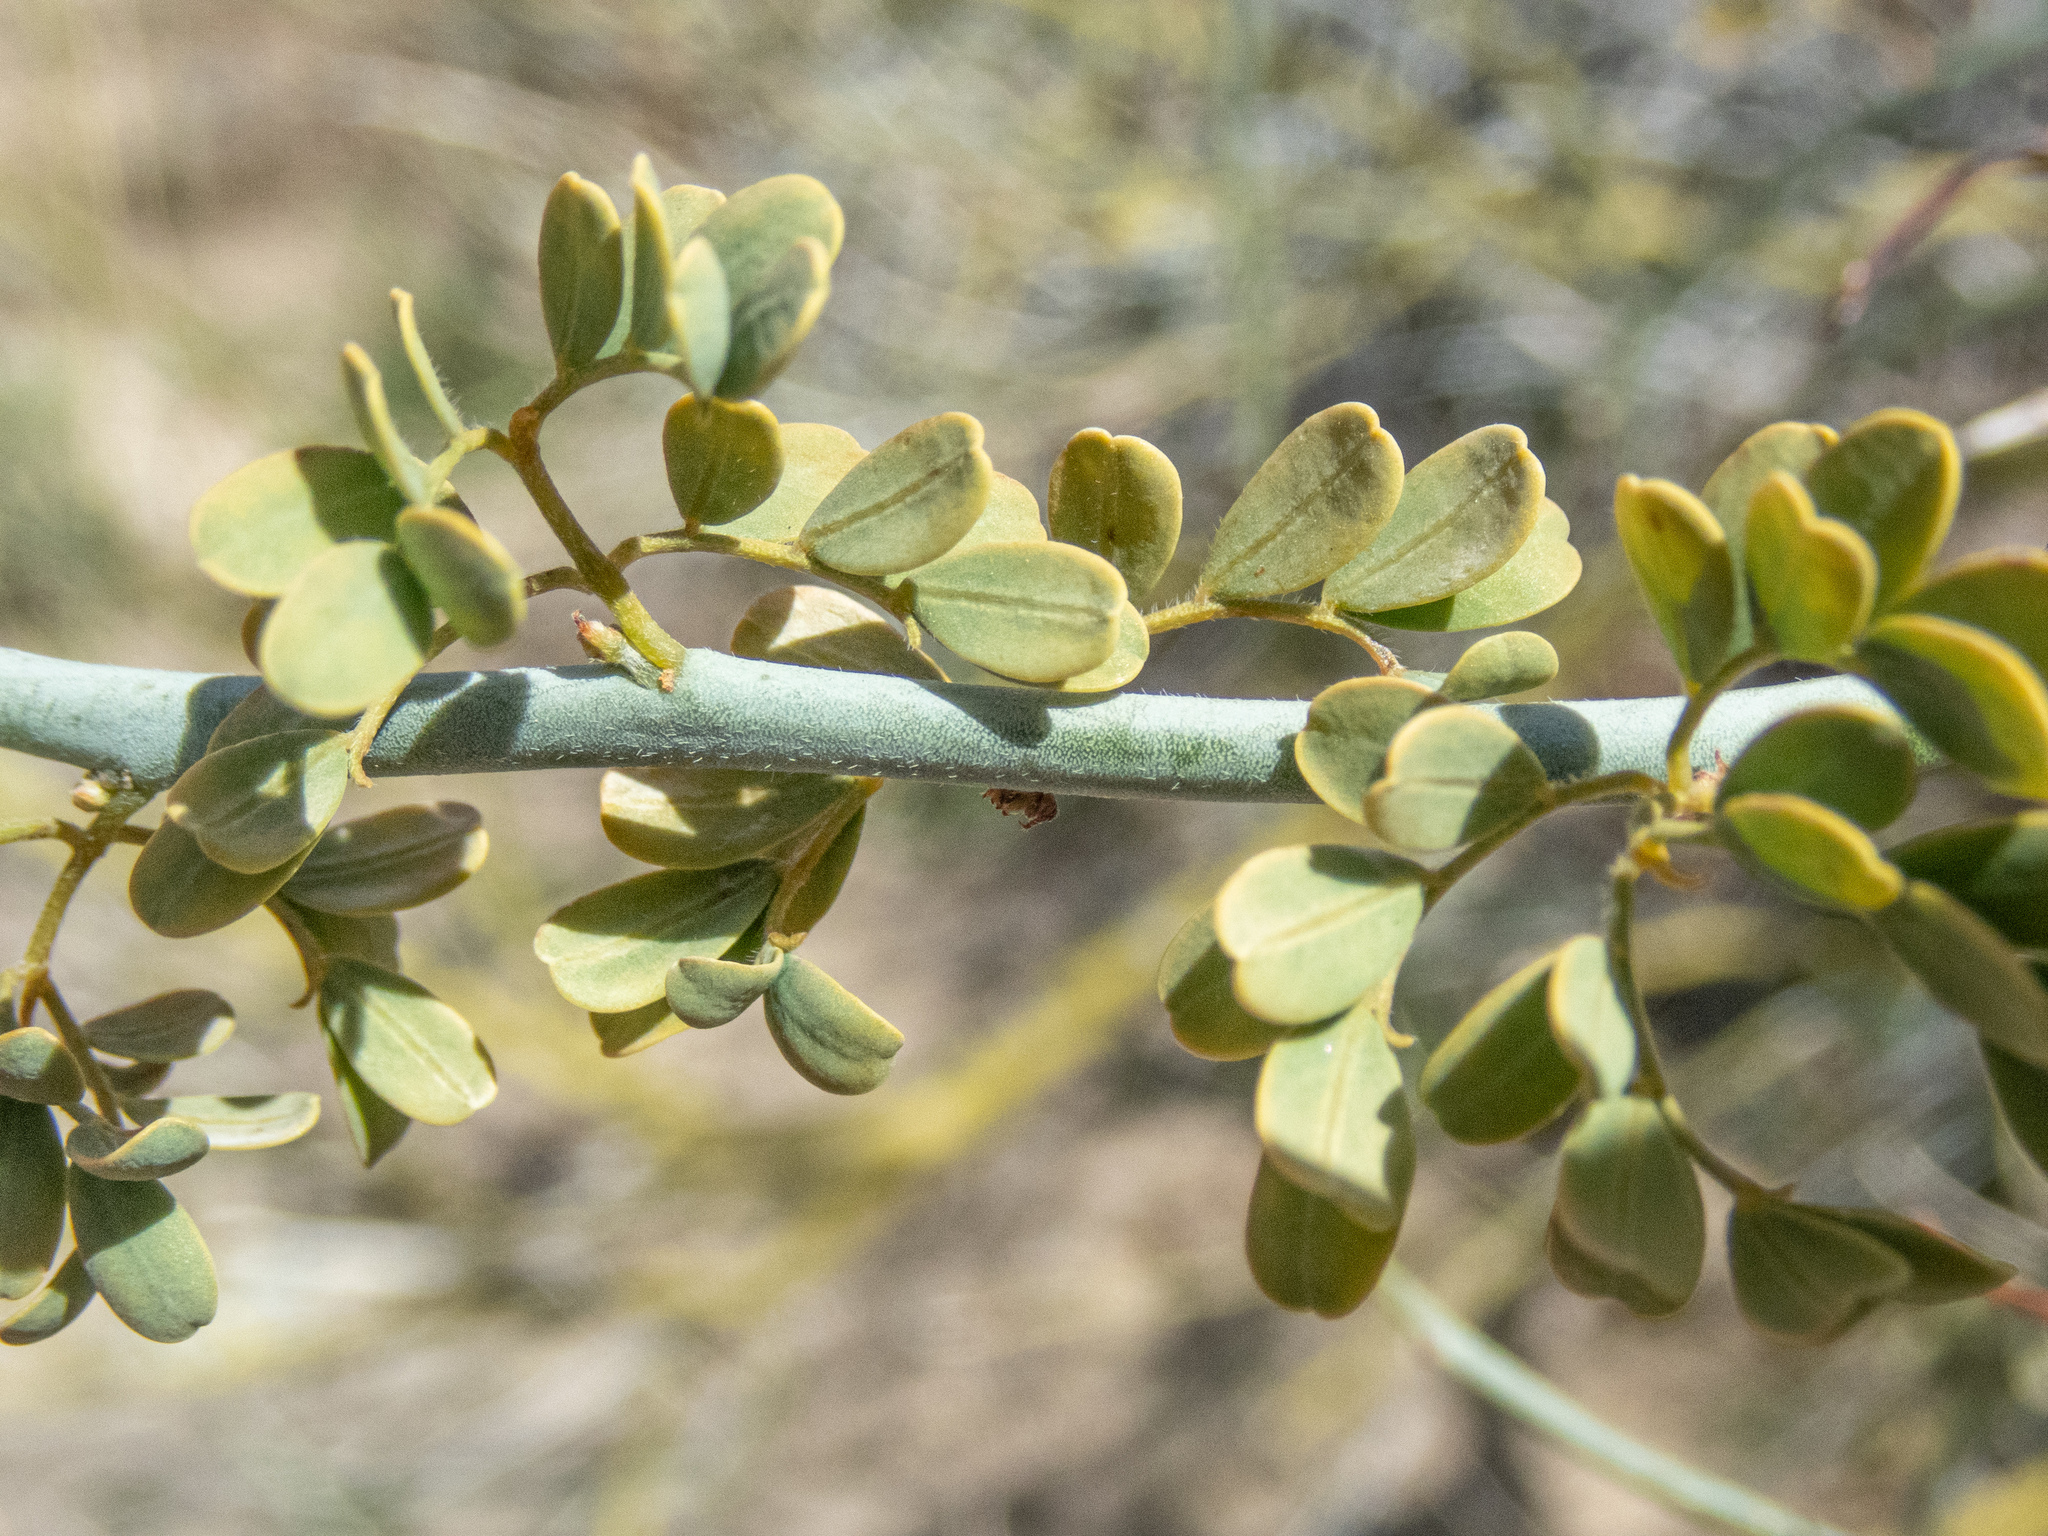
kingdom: Plantae
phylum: Tracheophyta
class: Magnoliopsida
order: Fabales
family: Fabaceae
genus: Parkinsonia
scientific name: Parkinsonia florida
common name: Blue paloverde
